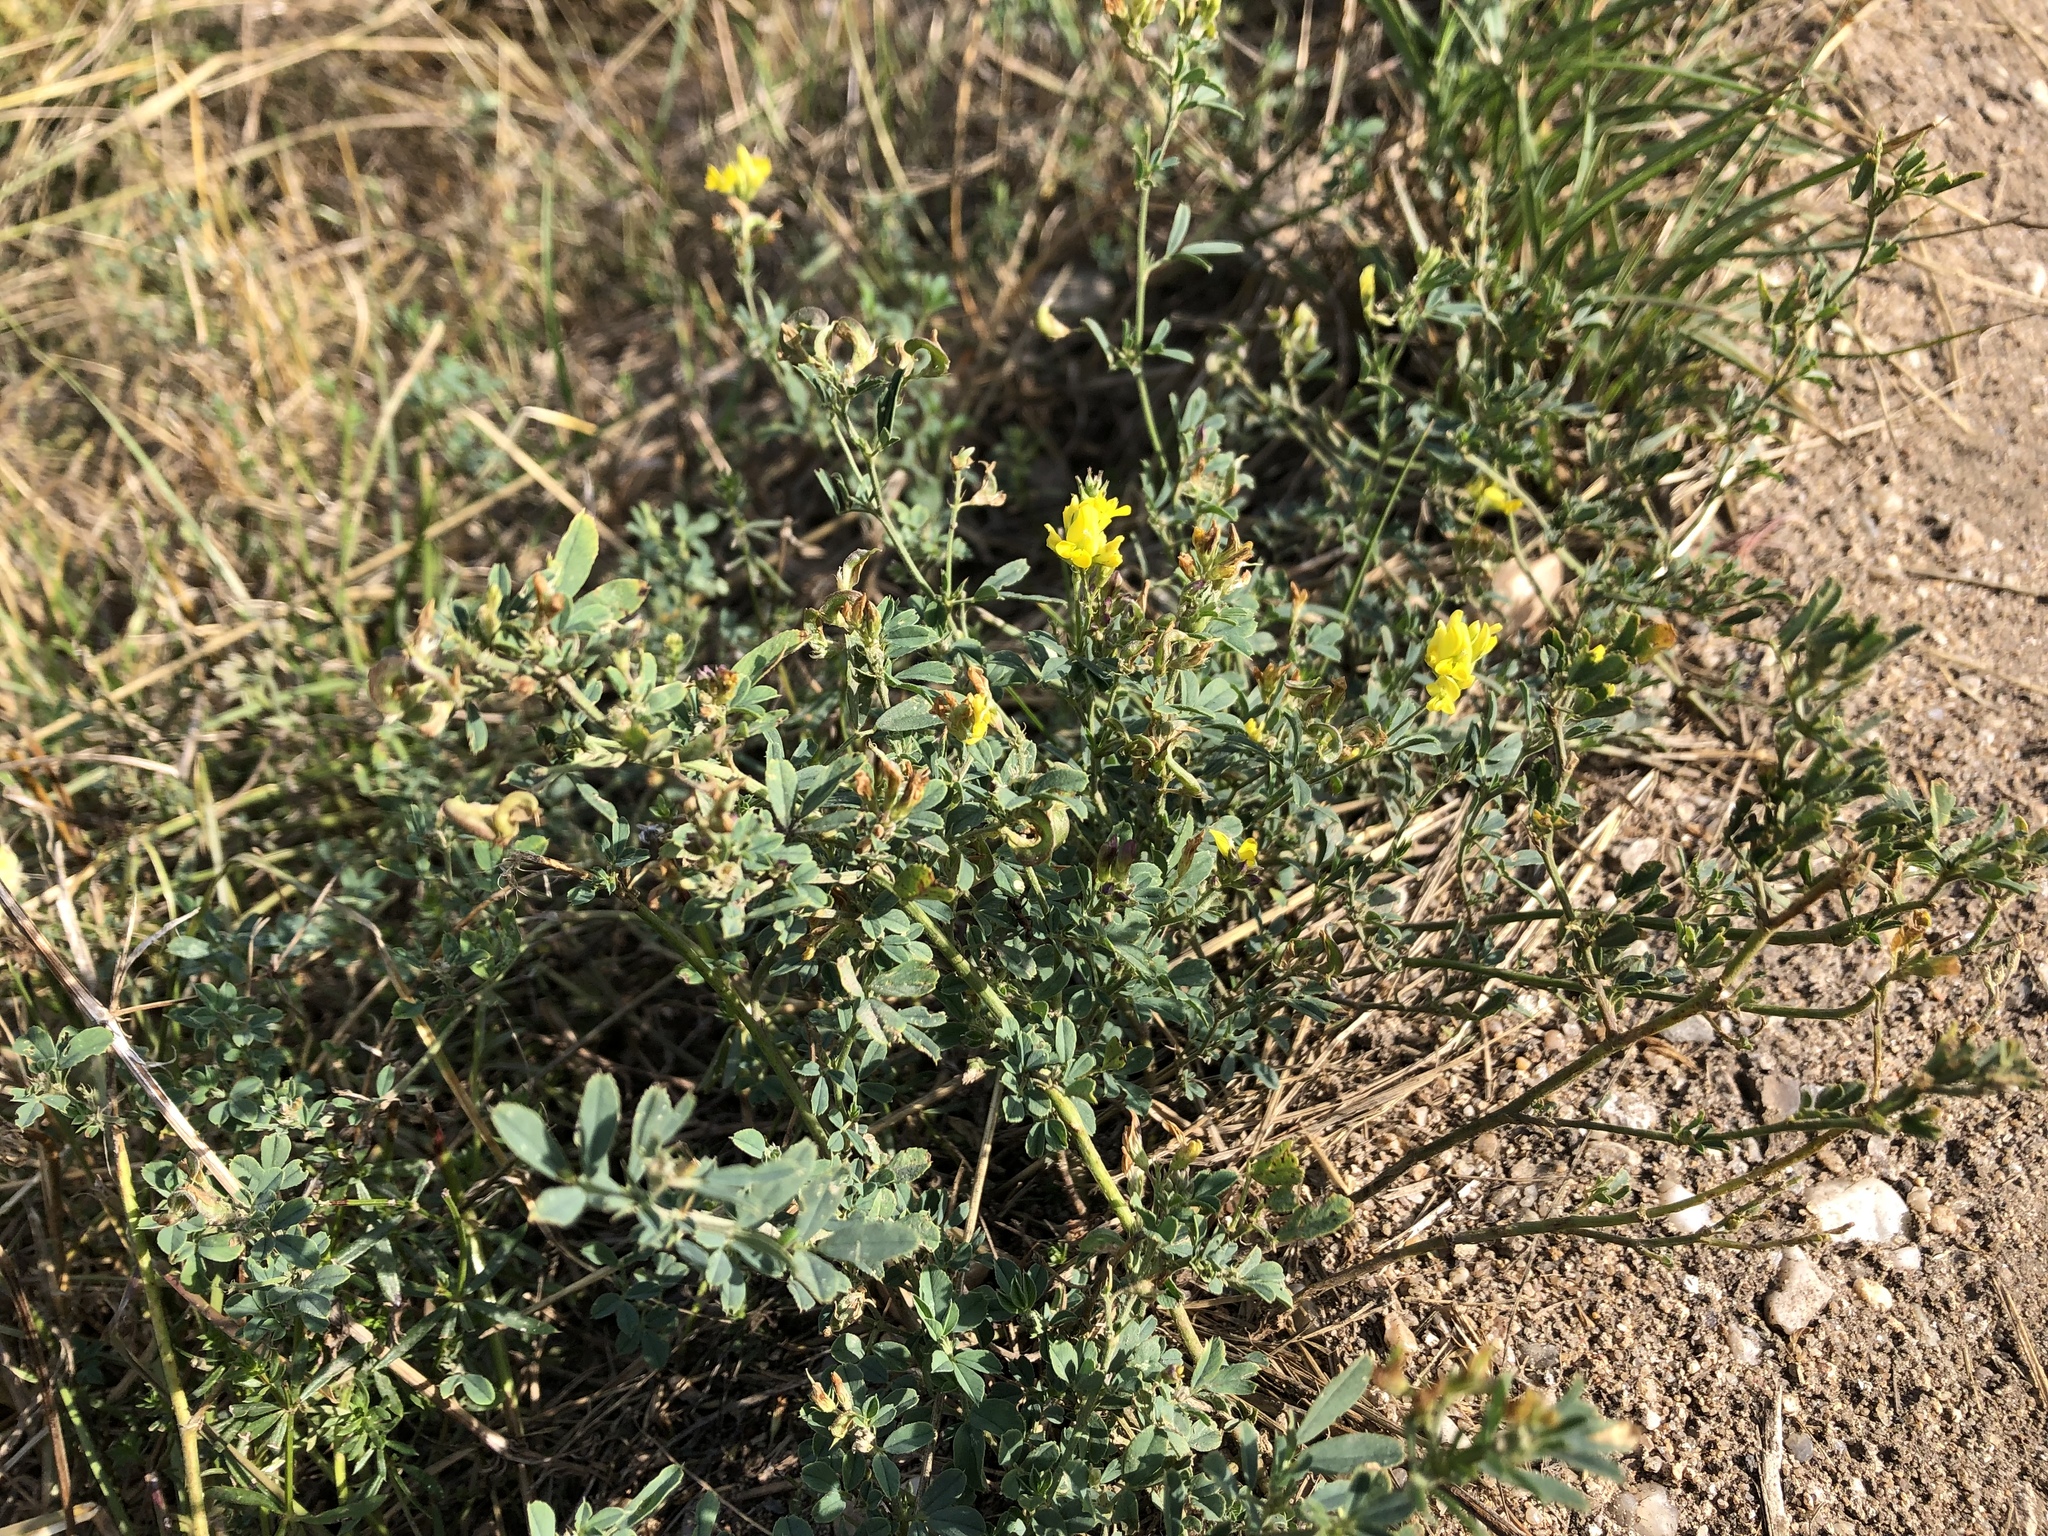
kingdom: Plantae
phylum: Tracheophyta
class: Magnoliopsida
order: Fabales
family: Fabaceae
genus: Medicago
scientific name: Medicago falcata
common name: Sickle medick
